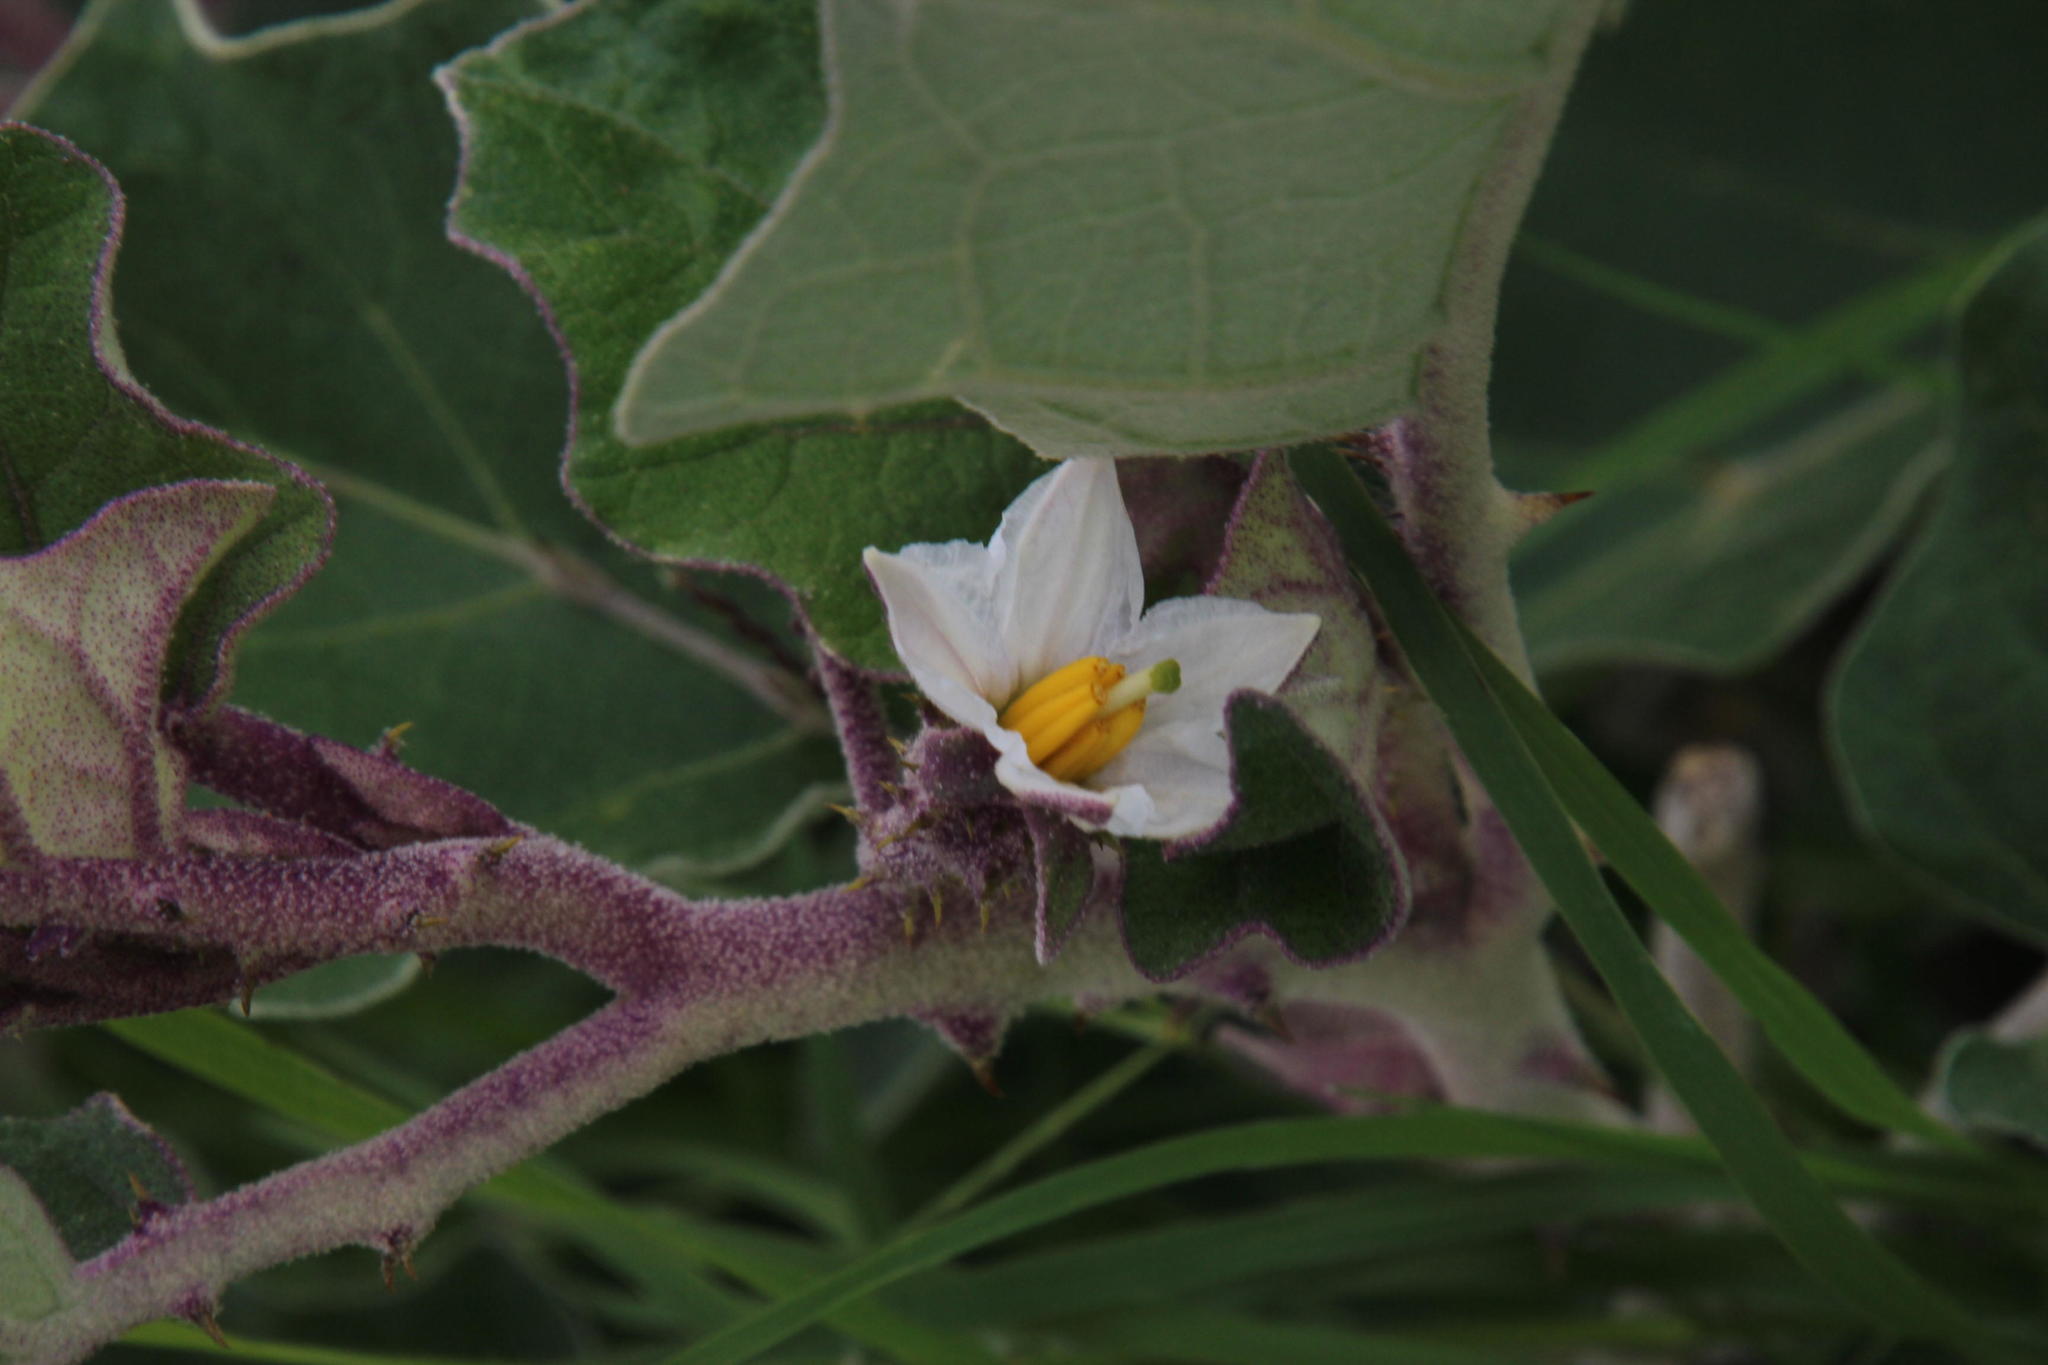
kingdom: Plantae
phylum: Tracheophyta
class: Magnoliopsida
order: Solanales
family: Solanaceae
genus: Solanum
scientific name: Solanum lichtensteinii
